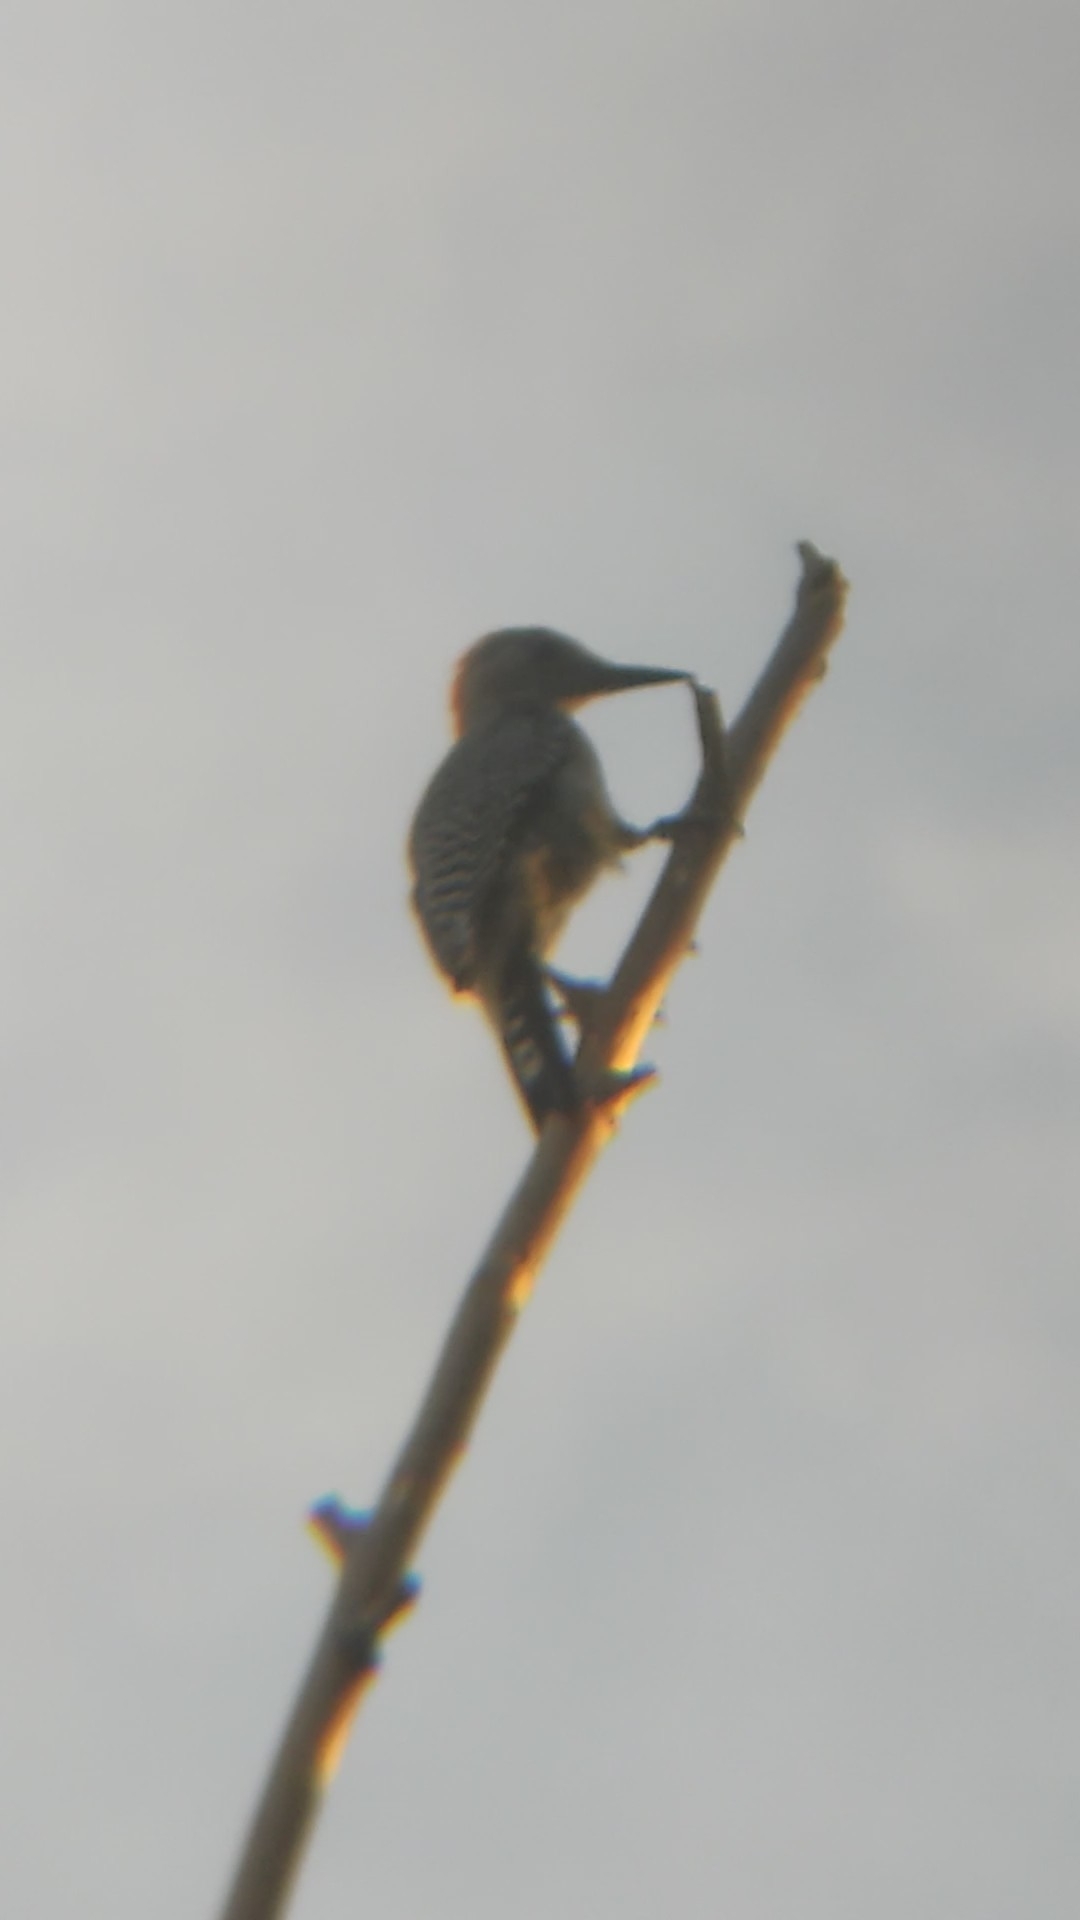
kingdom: Animalia
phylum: Chordata
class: Aves
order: Piciformes
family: Picidae
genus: Melanerpes
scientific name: Melanerpes aurifrons
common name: Golden-fronted woodpecker
